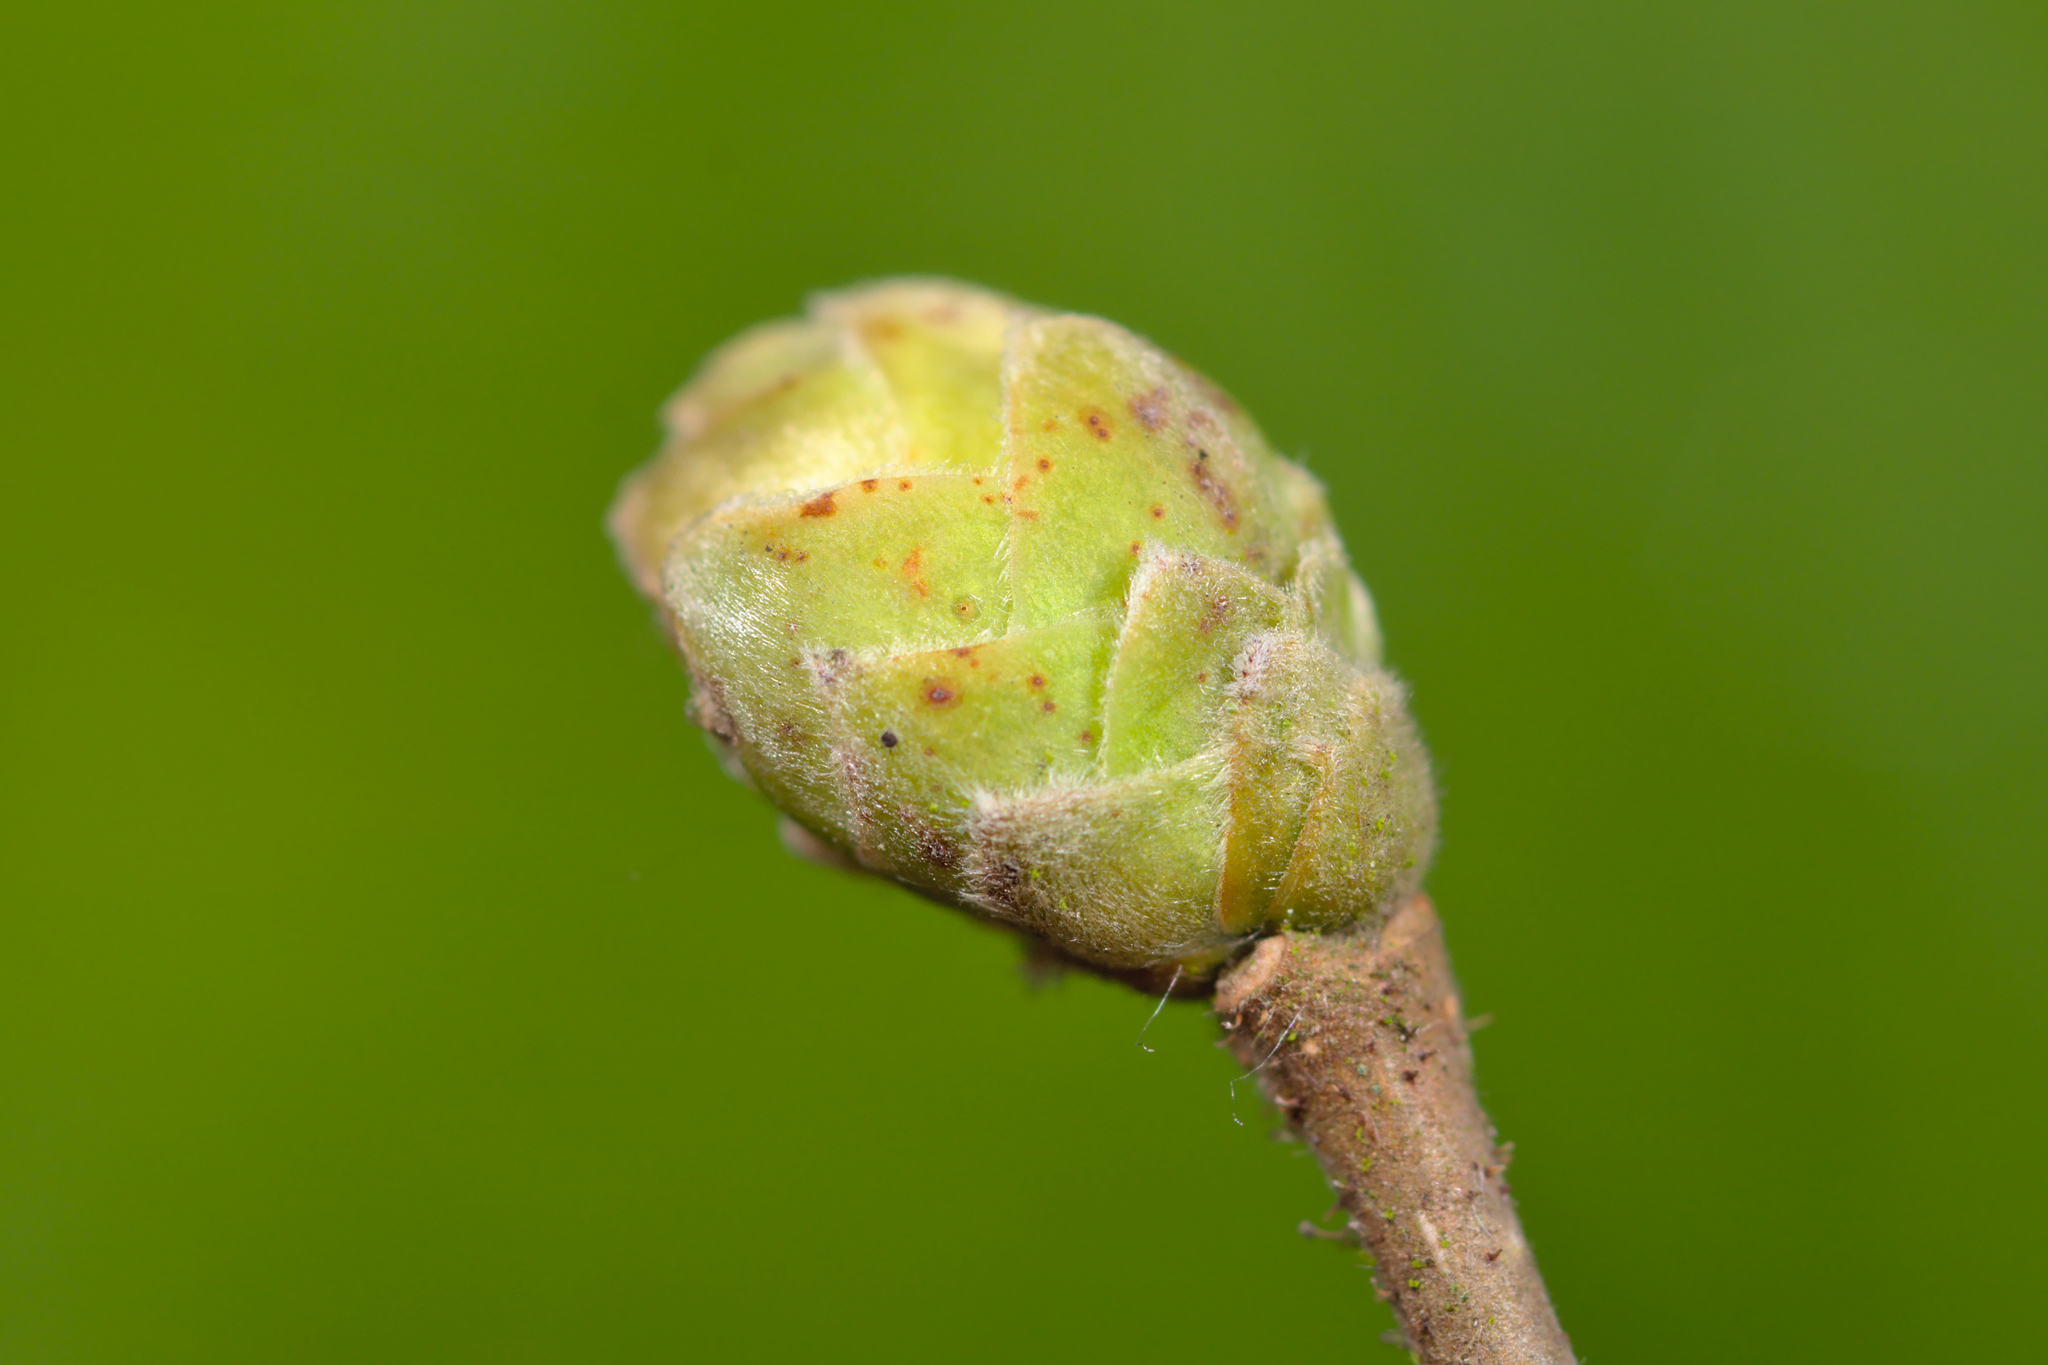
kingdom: Animalia
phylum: Arthropoda
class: Arachnida
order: Trombidiformes
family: Phytoptidae
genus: Phytoptus
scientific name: Phytoptus avellanae
